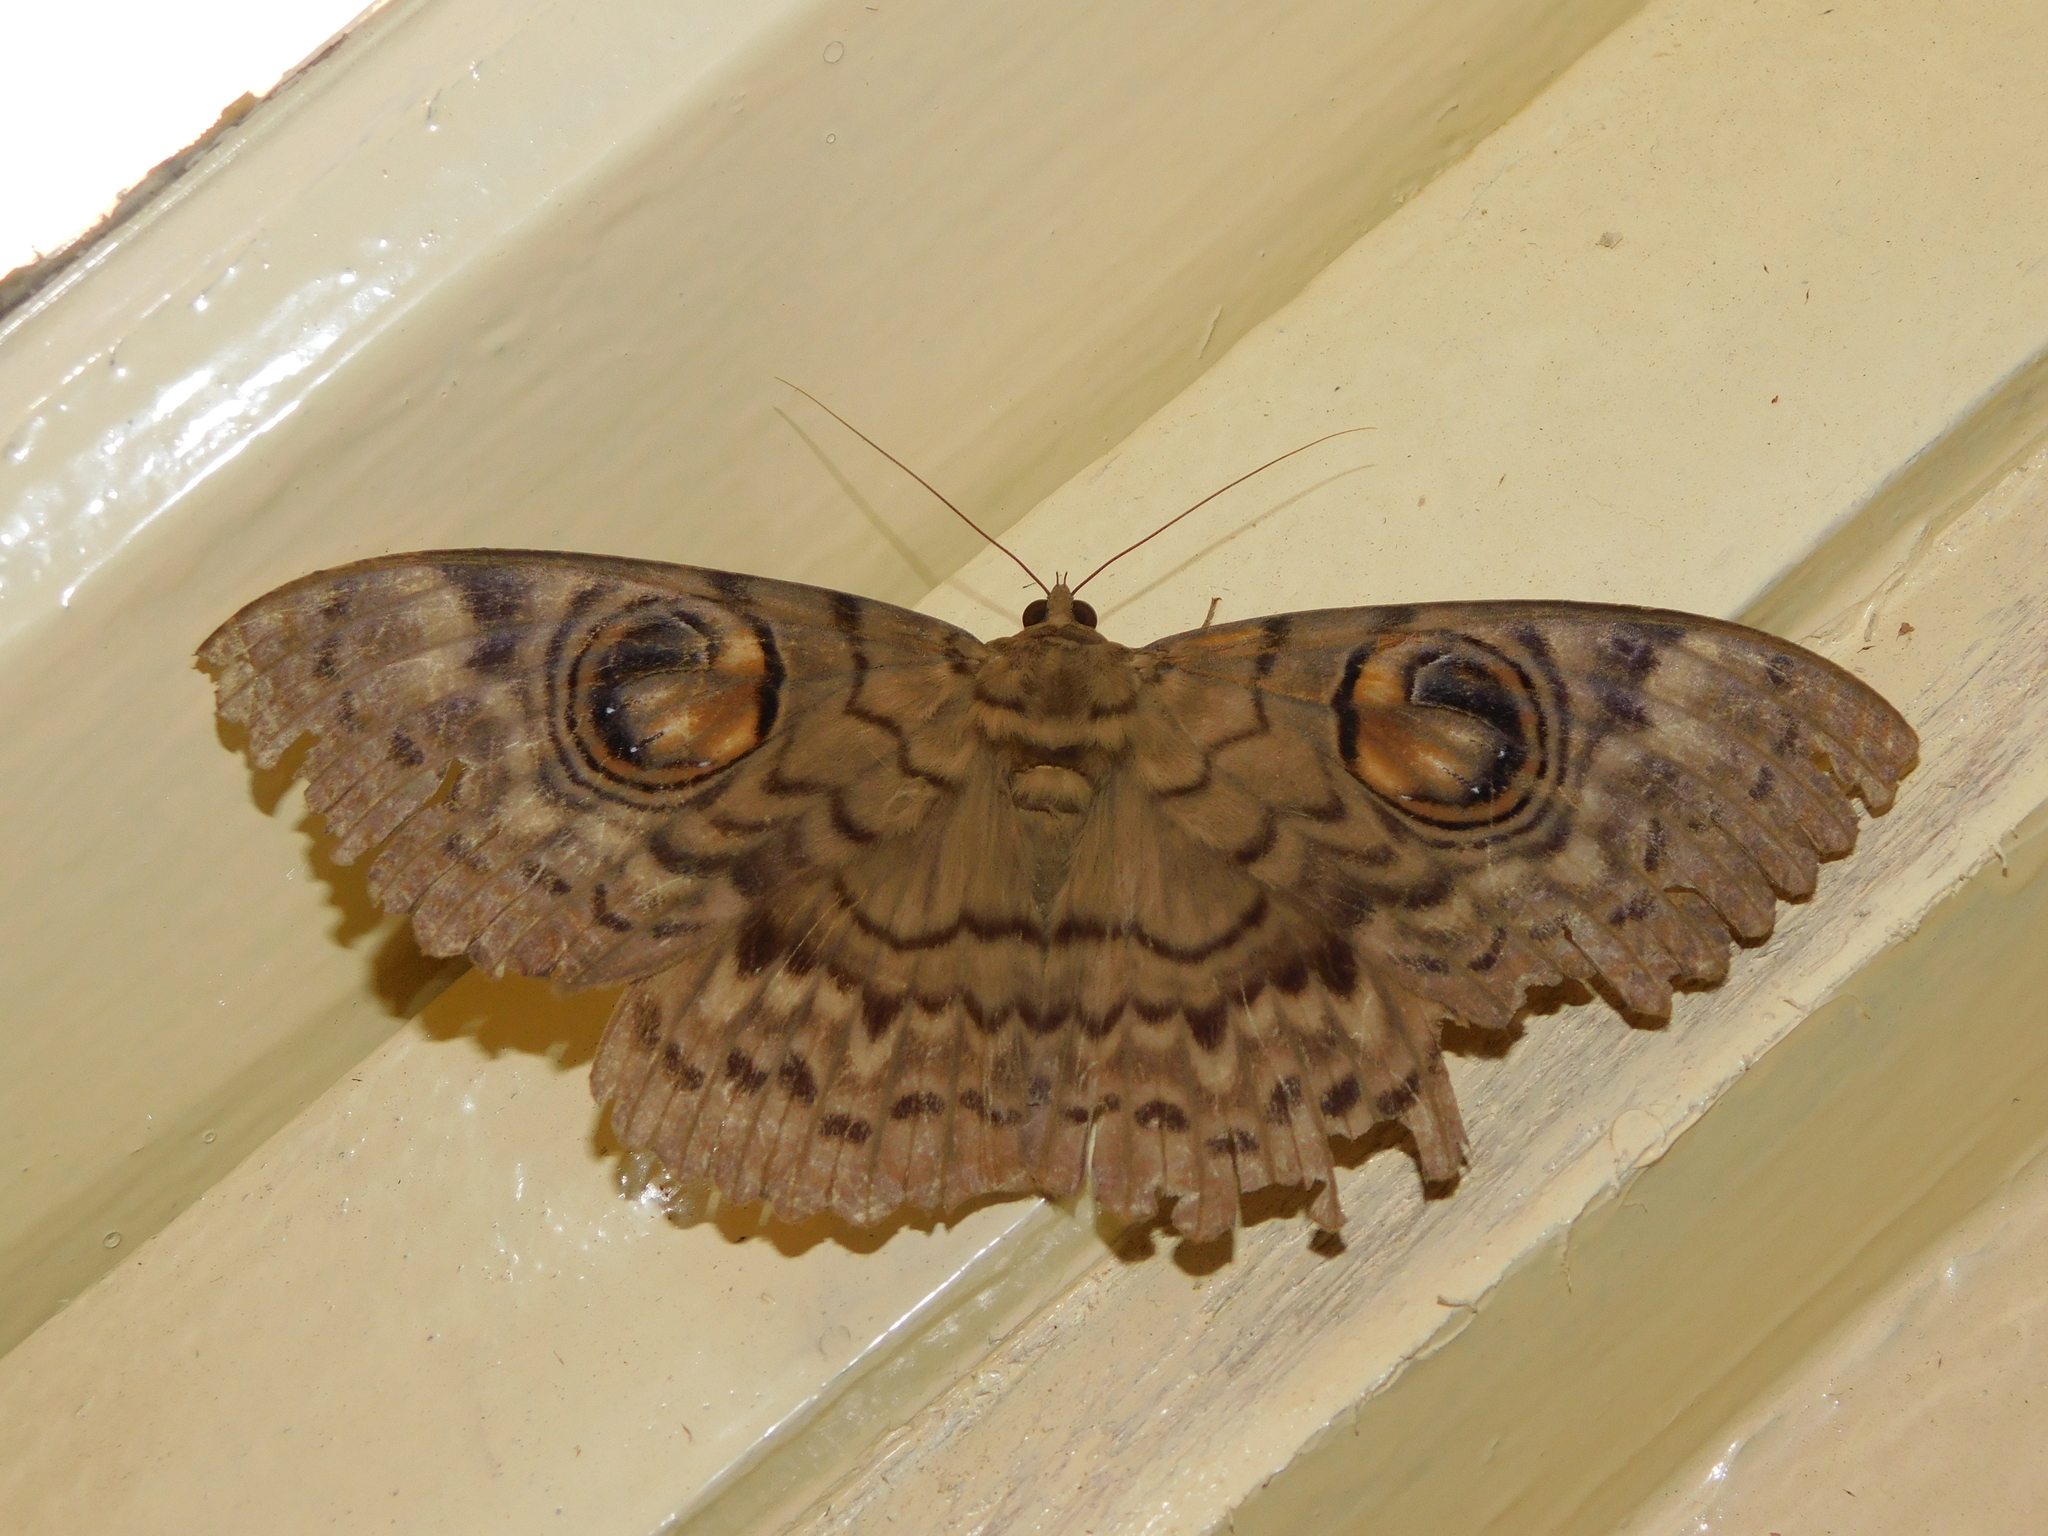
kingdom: Animalia
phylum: Arthropoda
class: Insecta
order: Lepidoptera
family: Erebidae
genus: Erebus
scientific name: Erebus macrops
